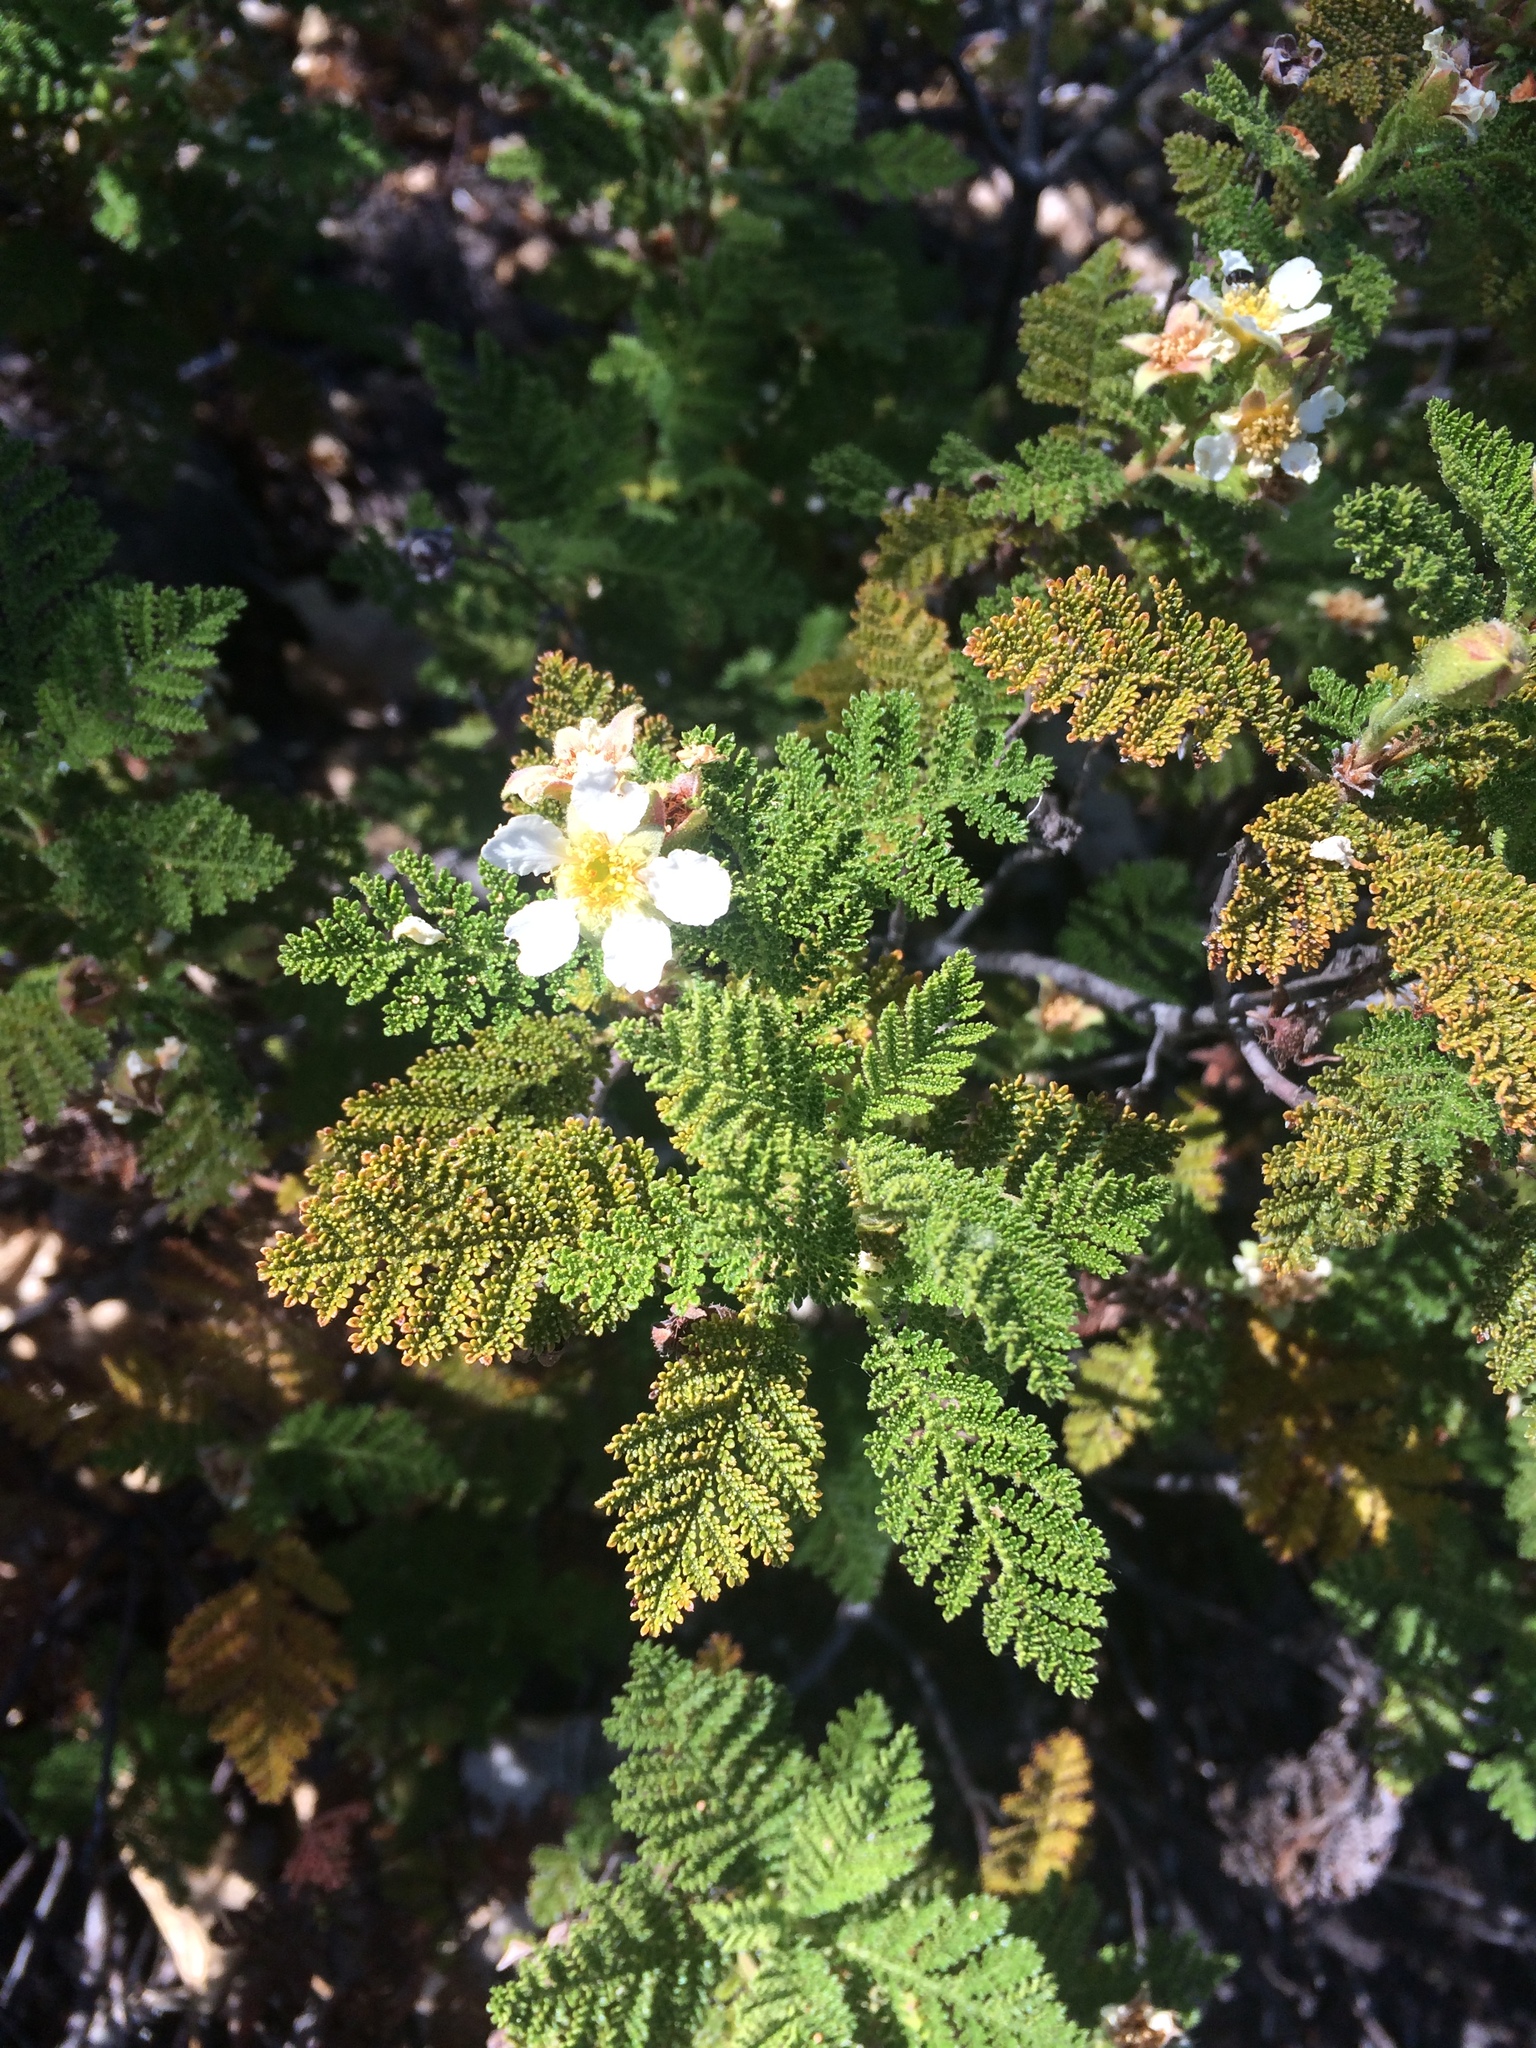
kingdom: Plantae
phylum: Tracheophyta
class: Magnoliopsida
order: Rosales
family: Rosaceae
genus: Chamaebatia
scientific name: Chamaebatia foliolosa
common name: Mountain misery
